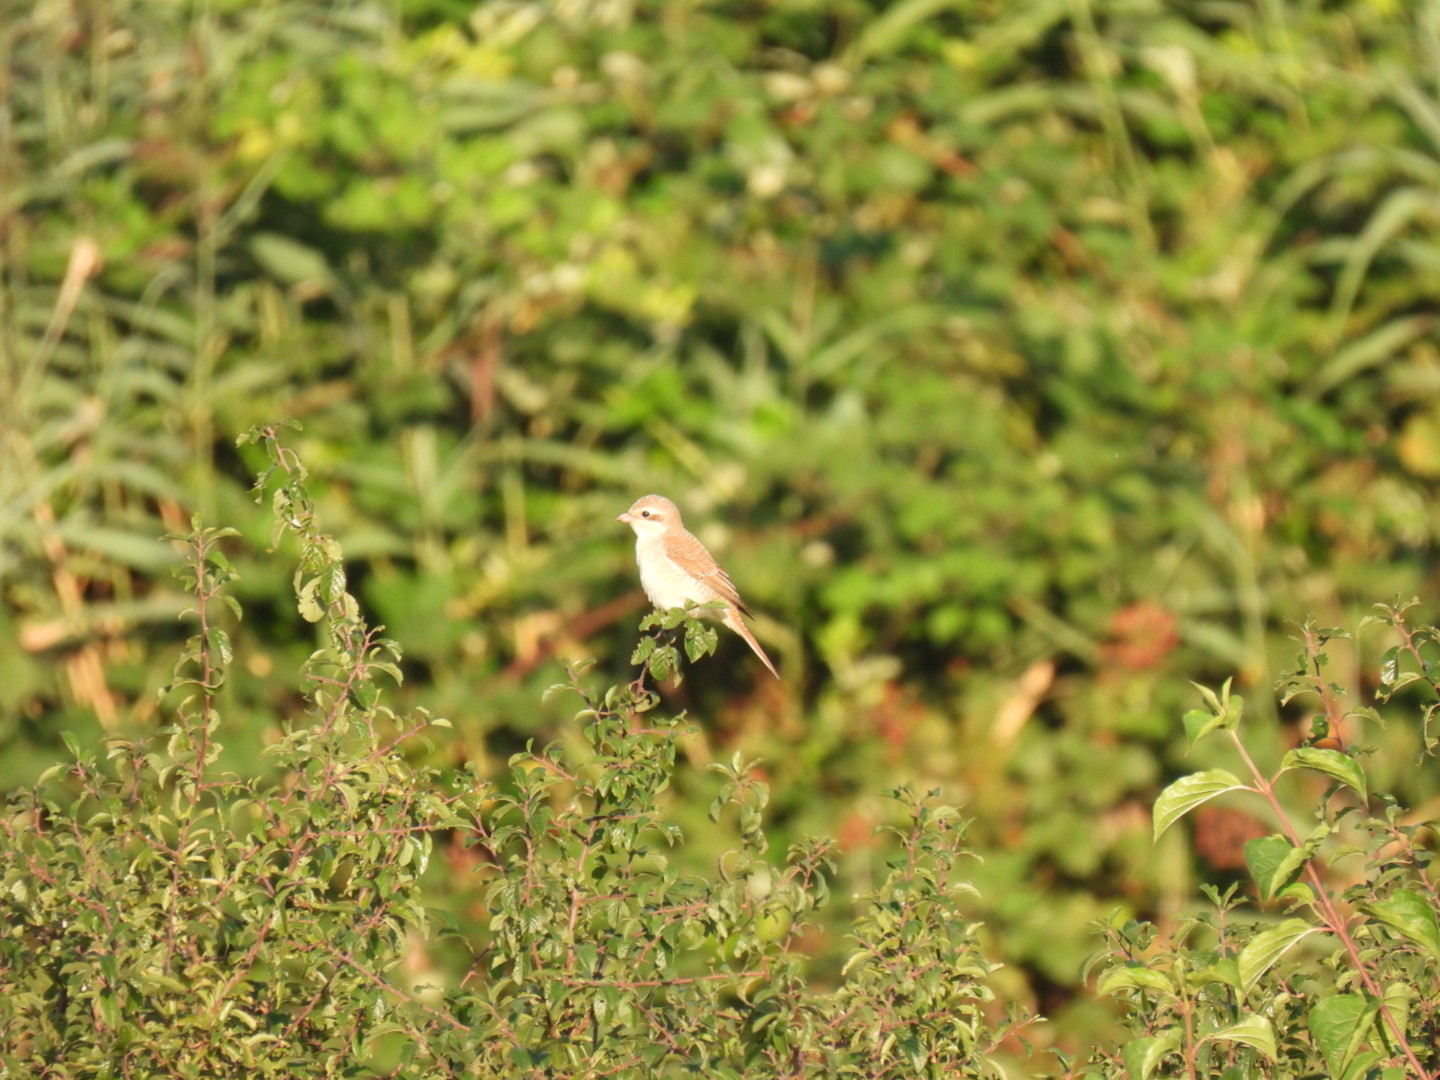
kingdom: Animalia
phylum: Chordata
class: Aves
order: Passeriformes
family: Laniidae
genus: Lanius
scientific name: Lanius collurio
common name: Red-backed shrike
